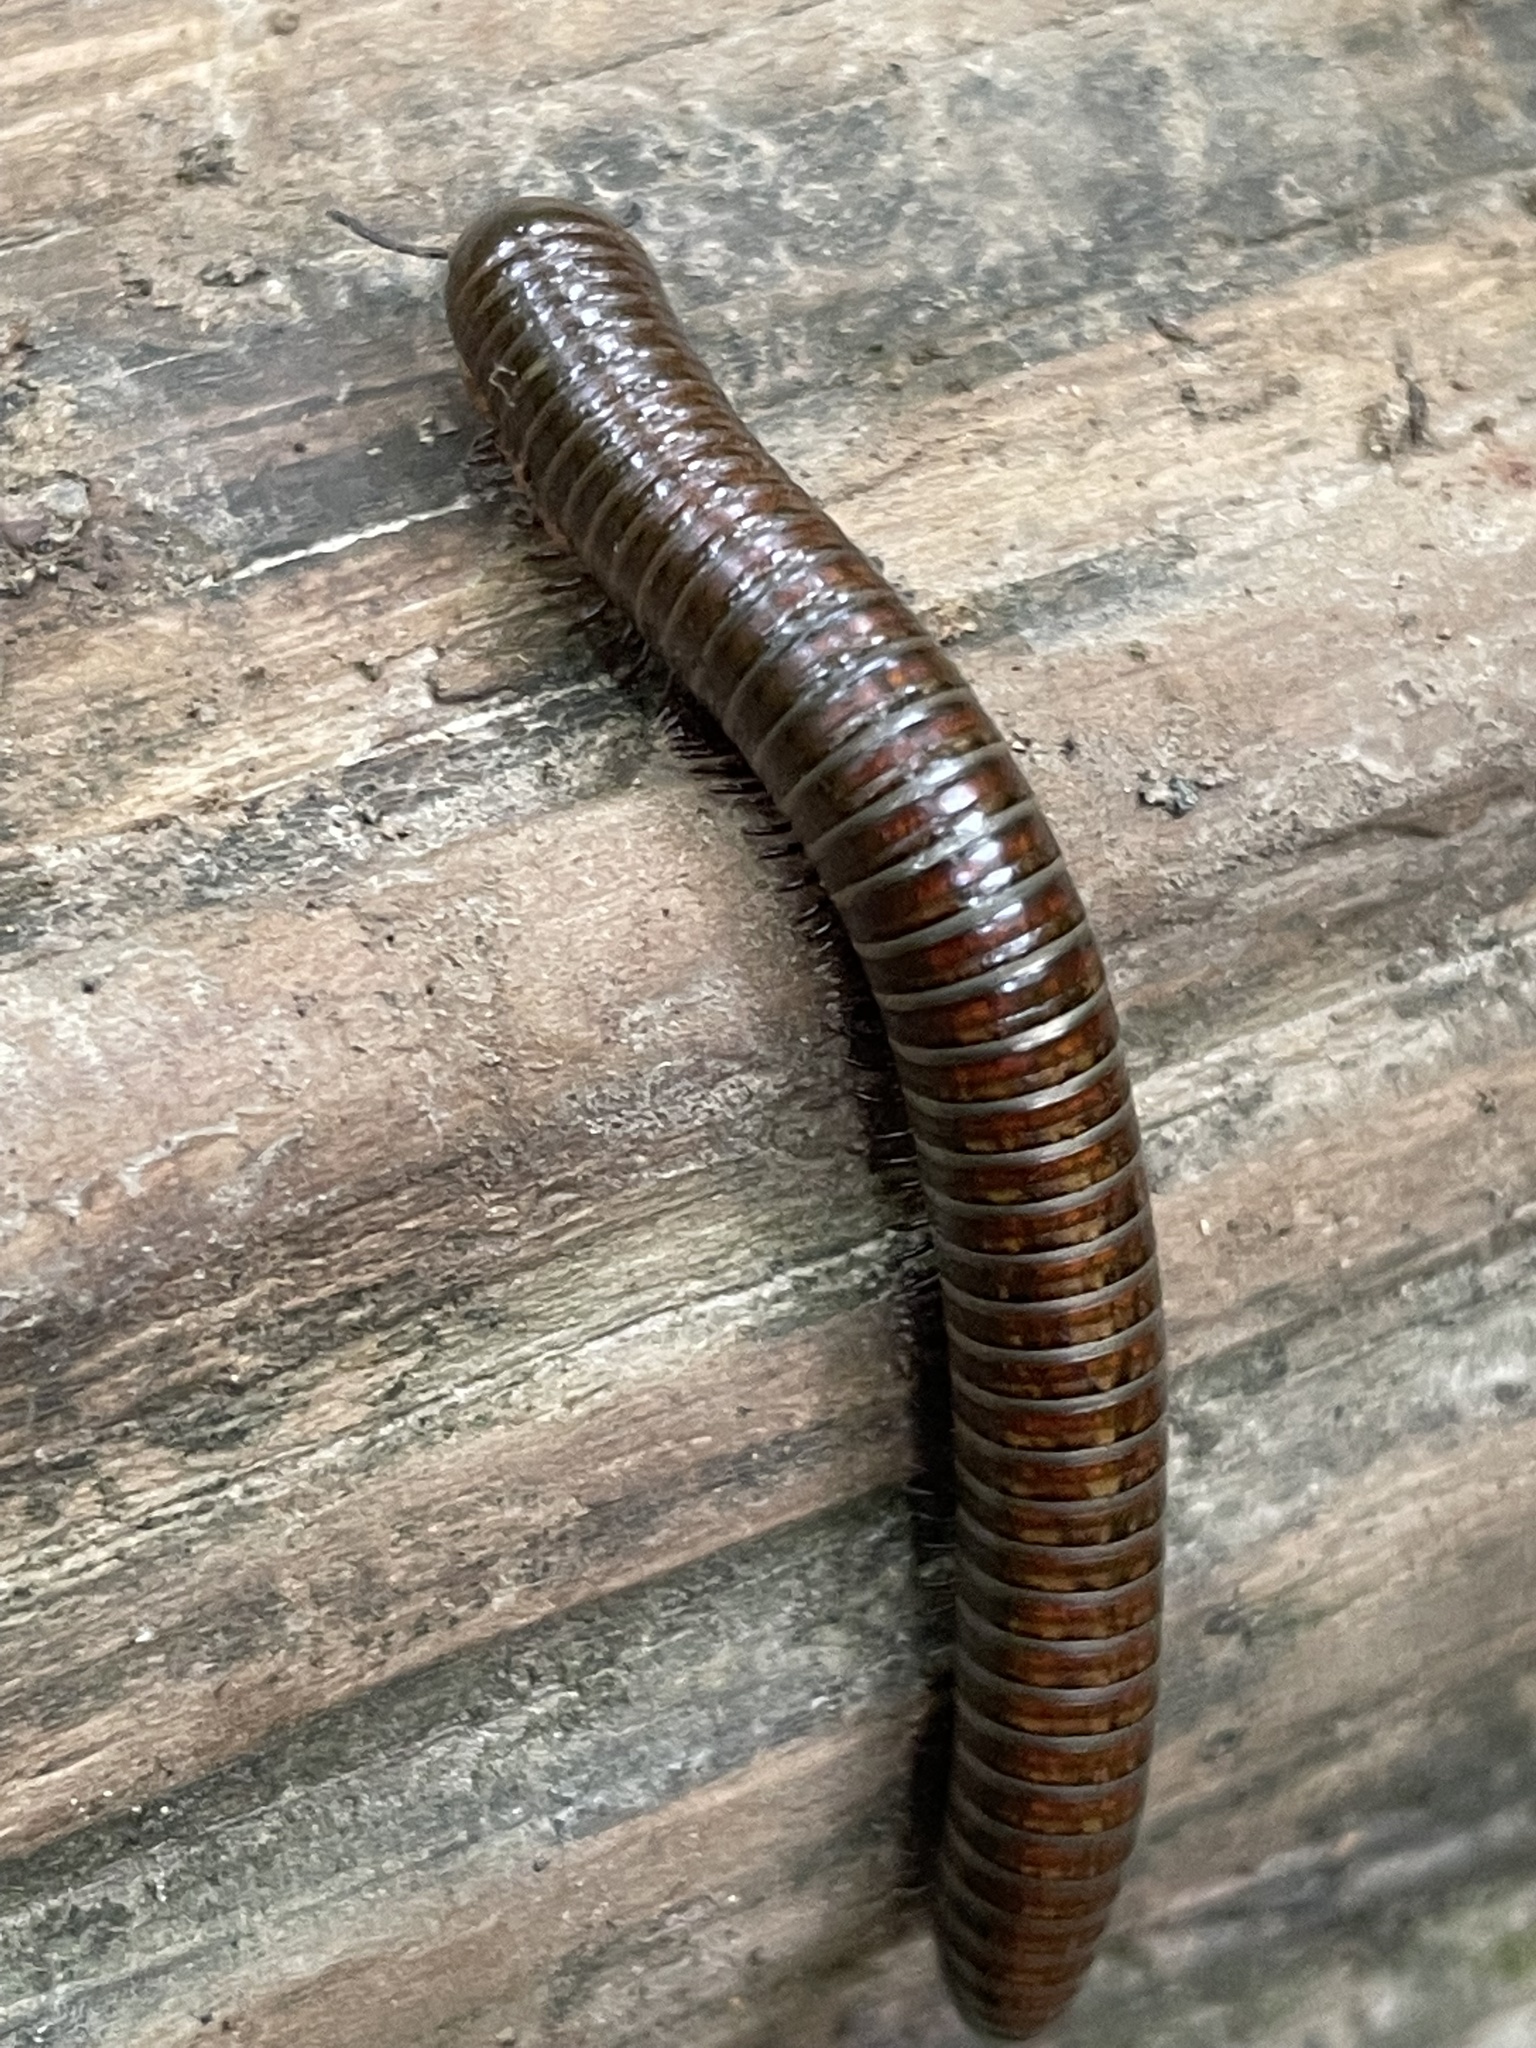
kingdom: Animalia
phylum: Arthropoda
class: Diplopoda
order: Spirostreptida
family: Choctellidae
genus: Choctella
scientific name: Choctella cumminsi
